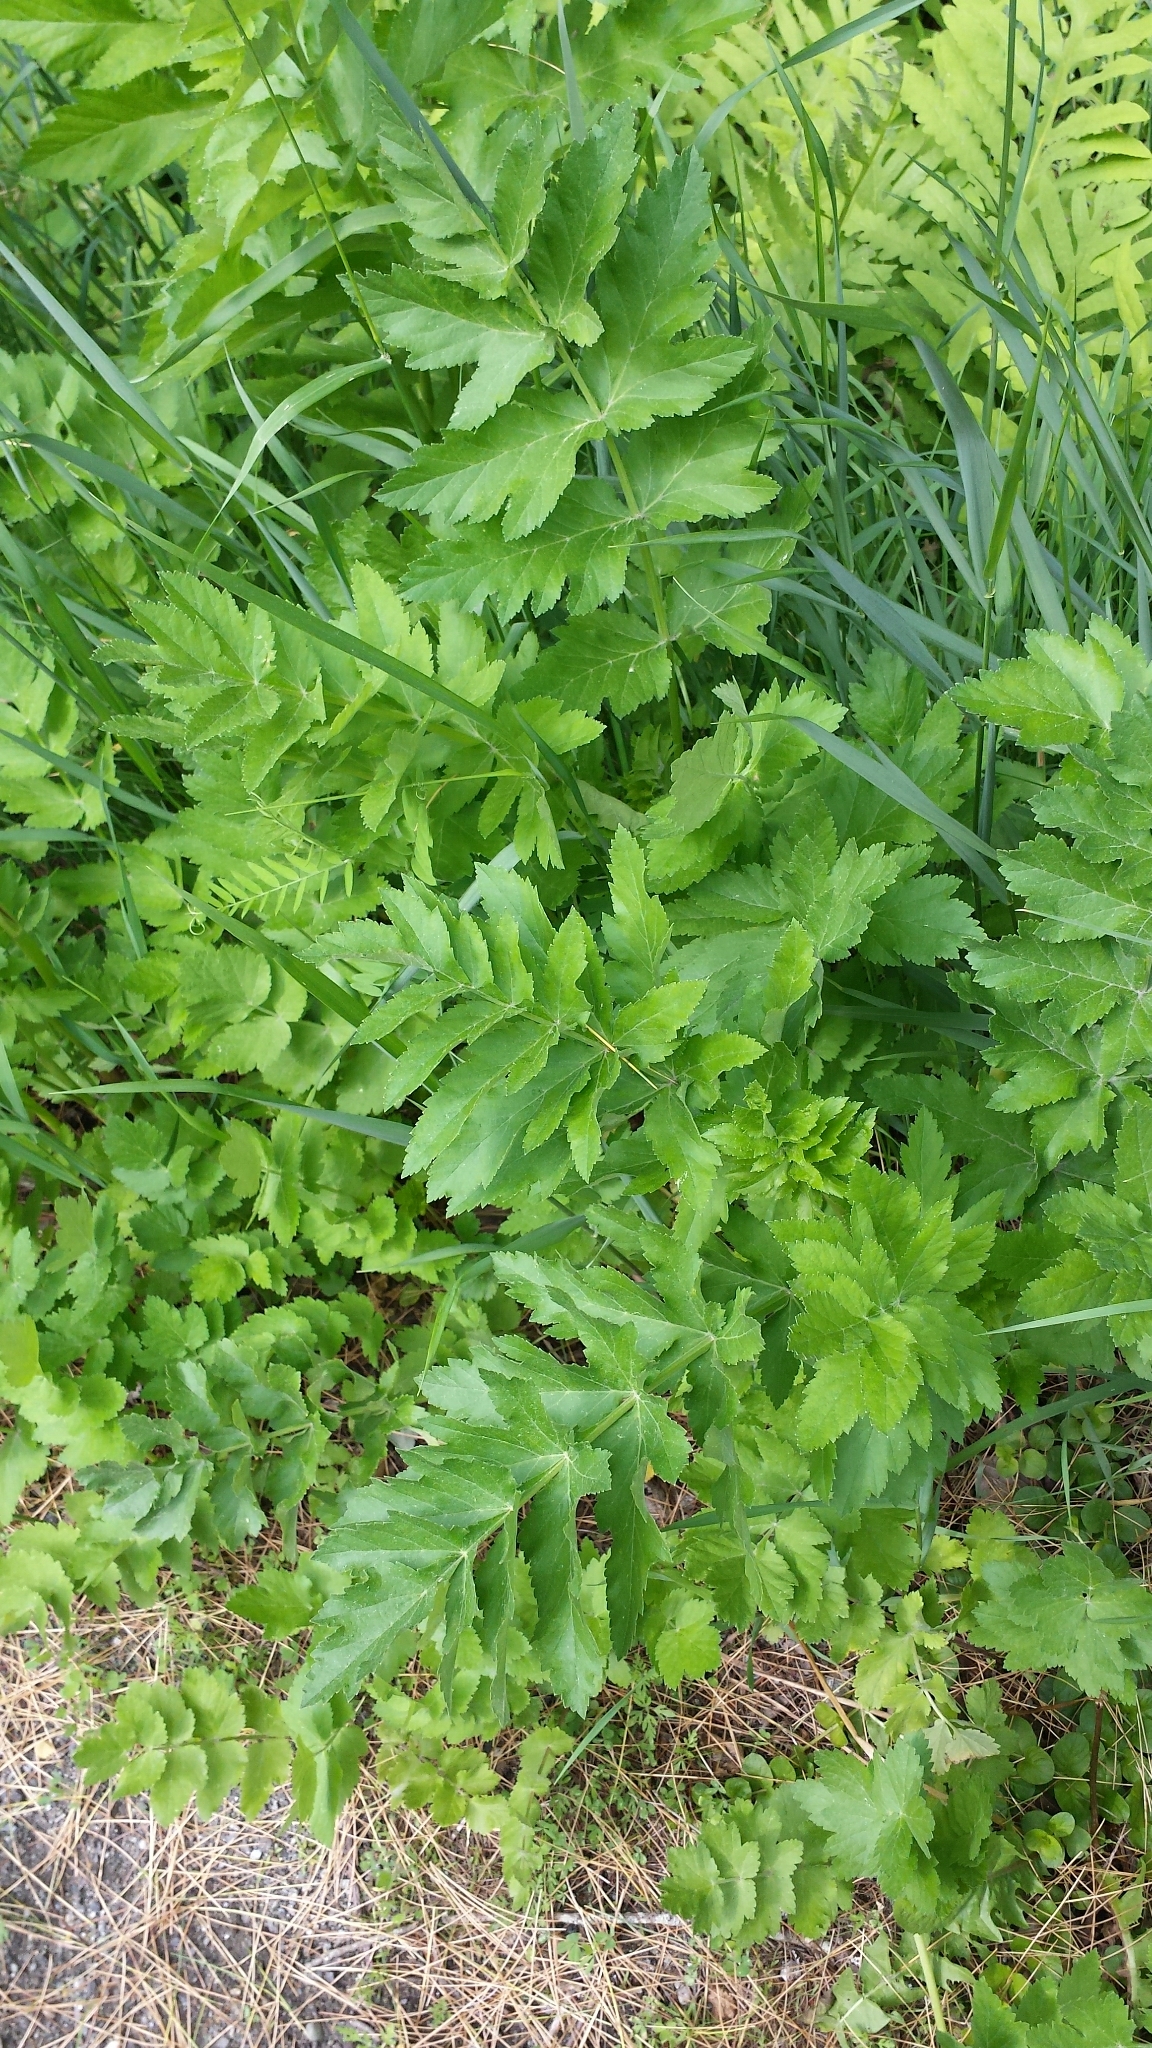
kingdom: Plantae
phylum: Tracheophyta
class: Magnoliopsida
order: Apiales
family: Apiaceae
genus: Pastinaca
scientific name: Pastinaca sativa
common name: Wild parsnip
